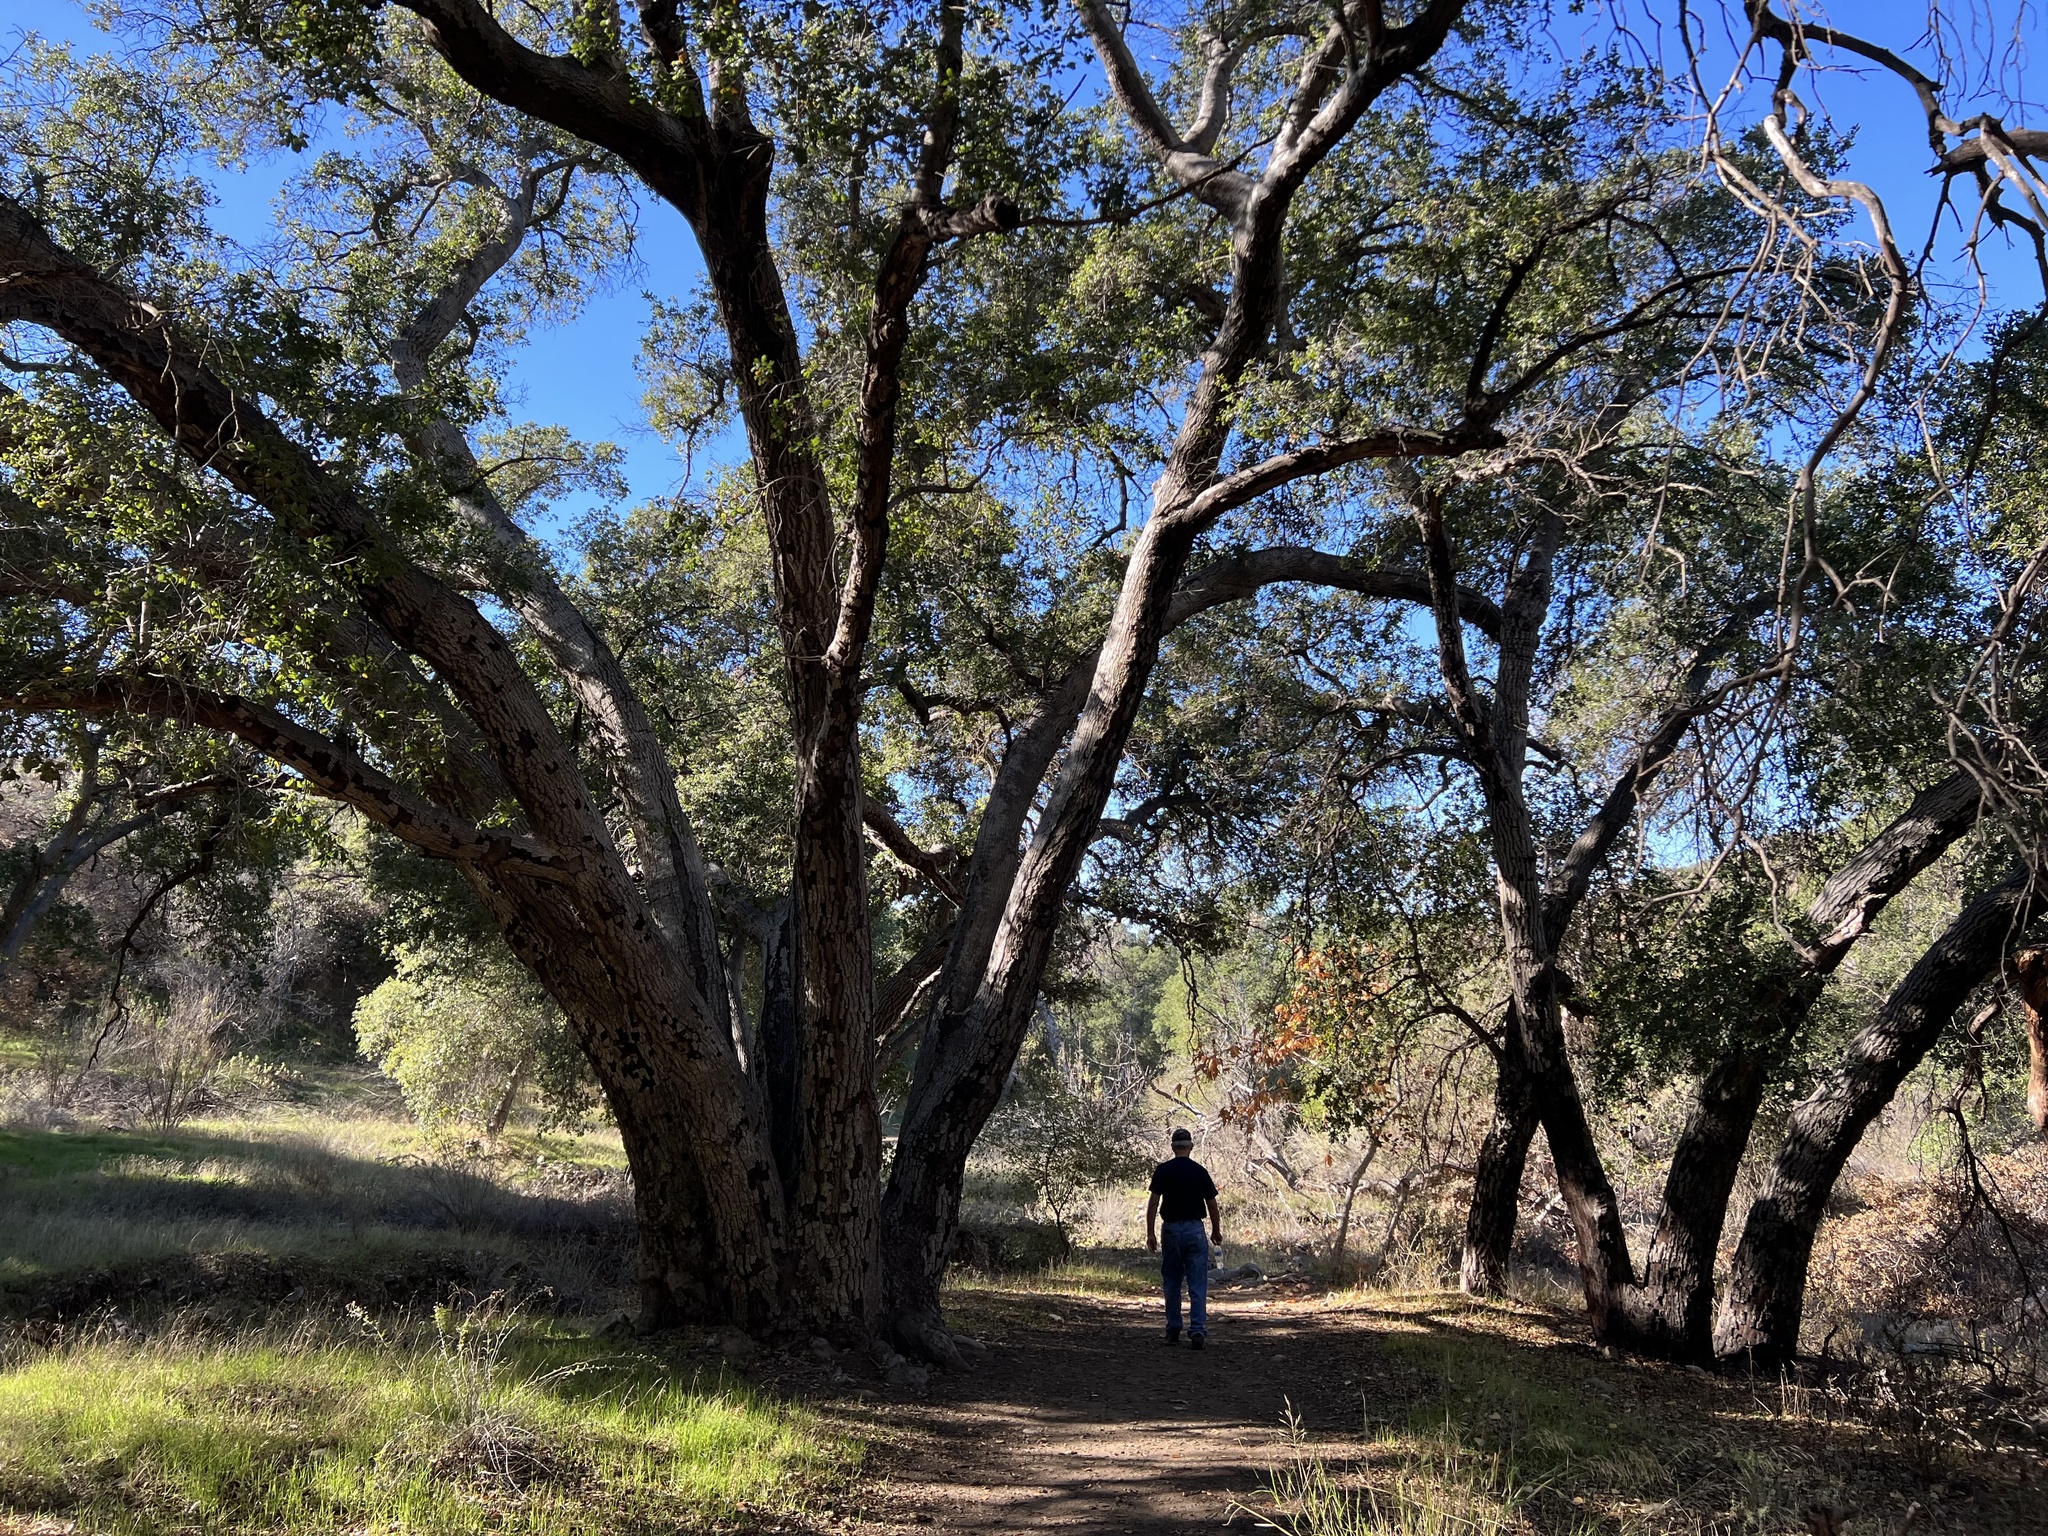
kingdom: Plantae
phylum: Tracheophyta
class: Magnoliopsida
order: Fagales
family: Fagaceae
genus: Quercus
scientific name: Quercus agrifolia
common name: California live oak
